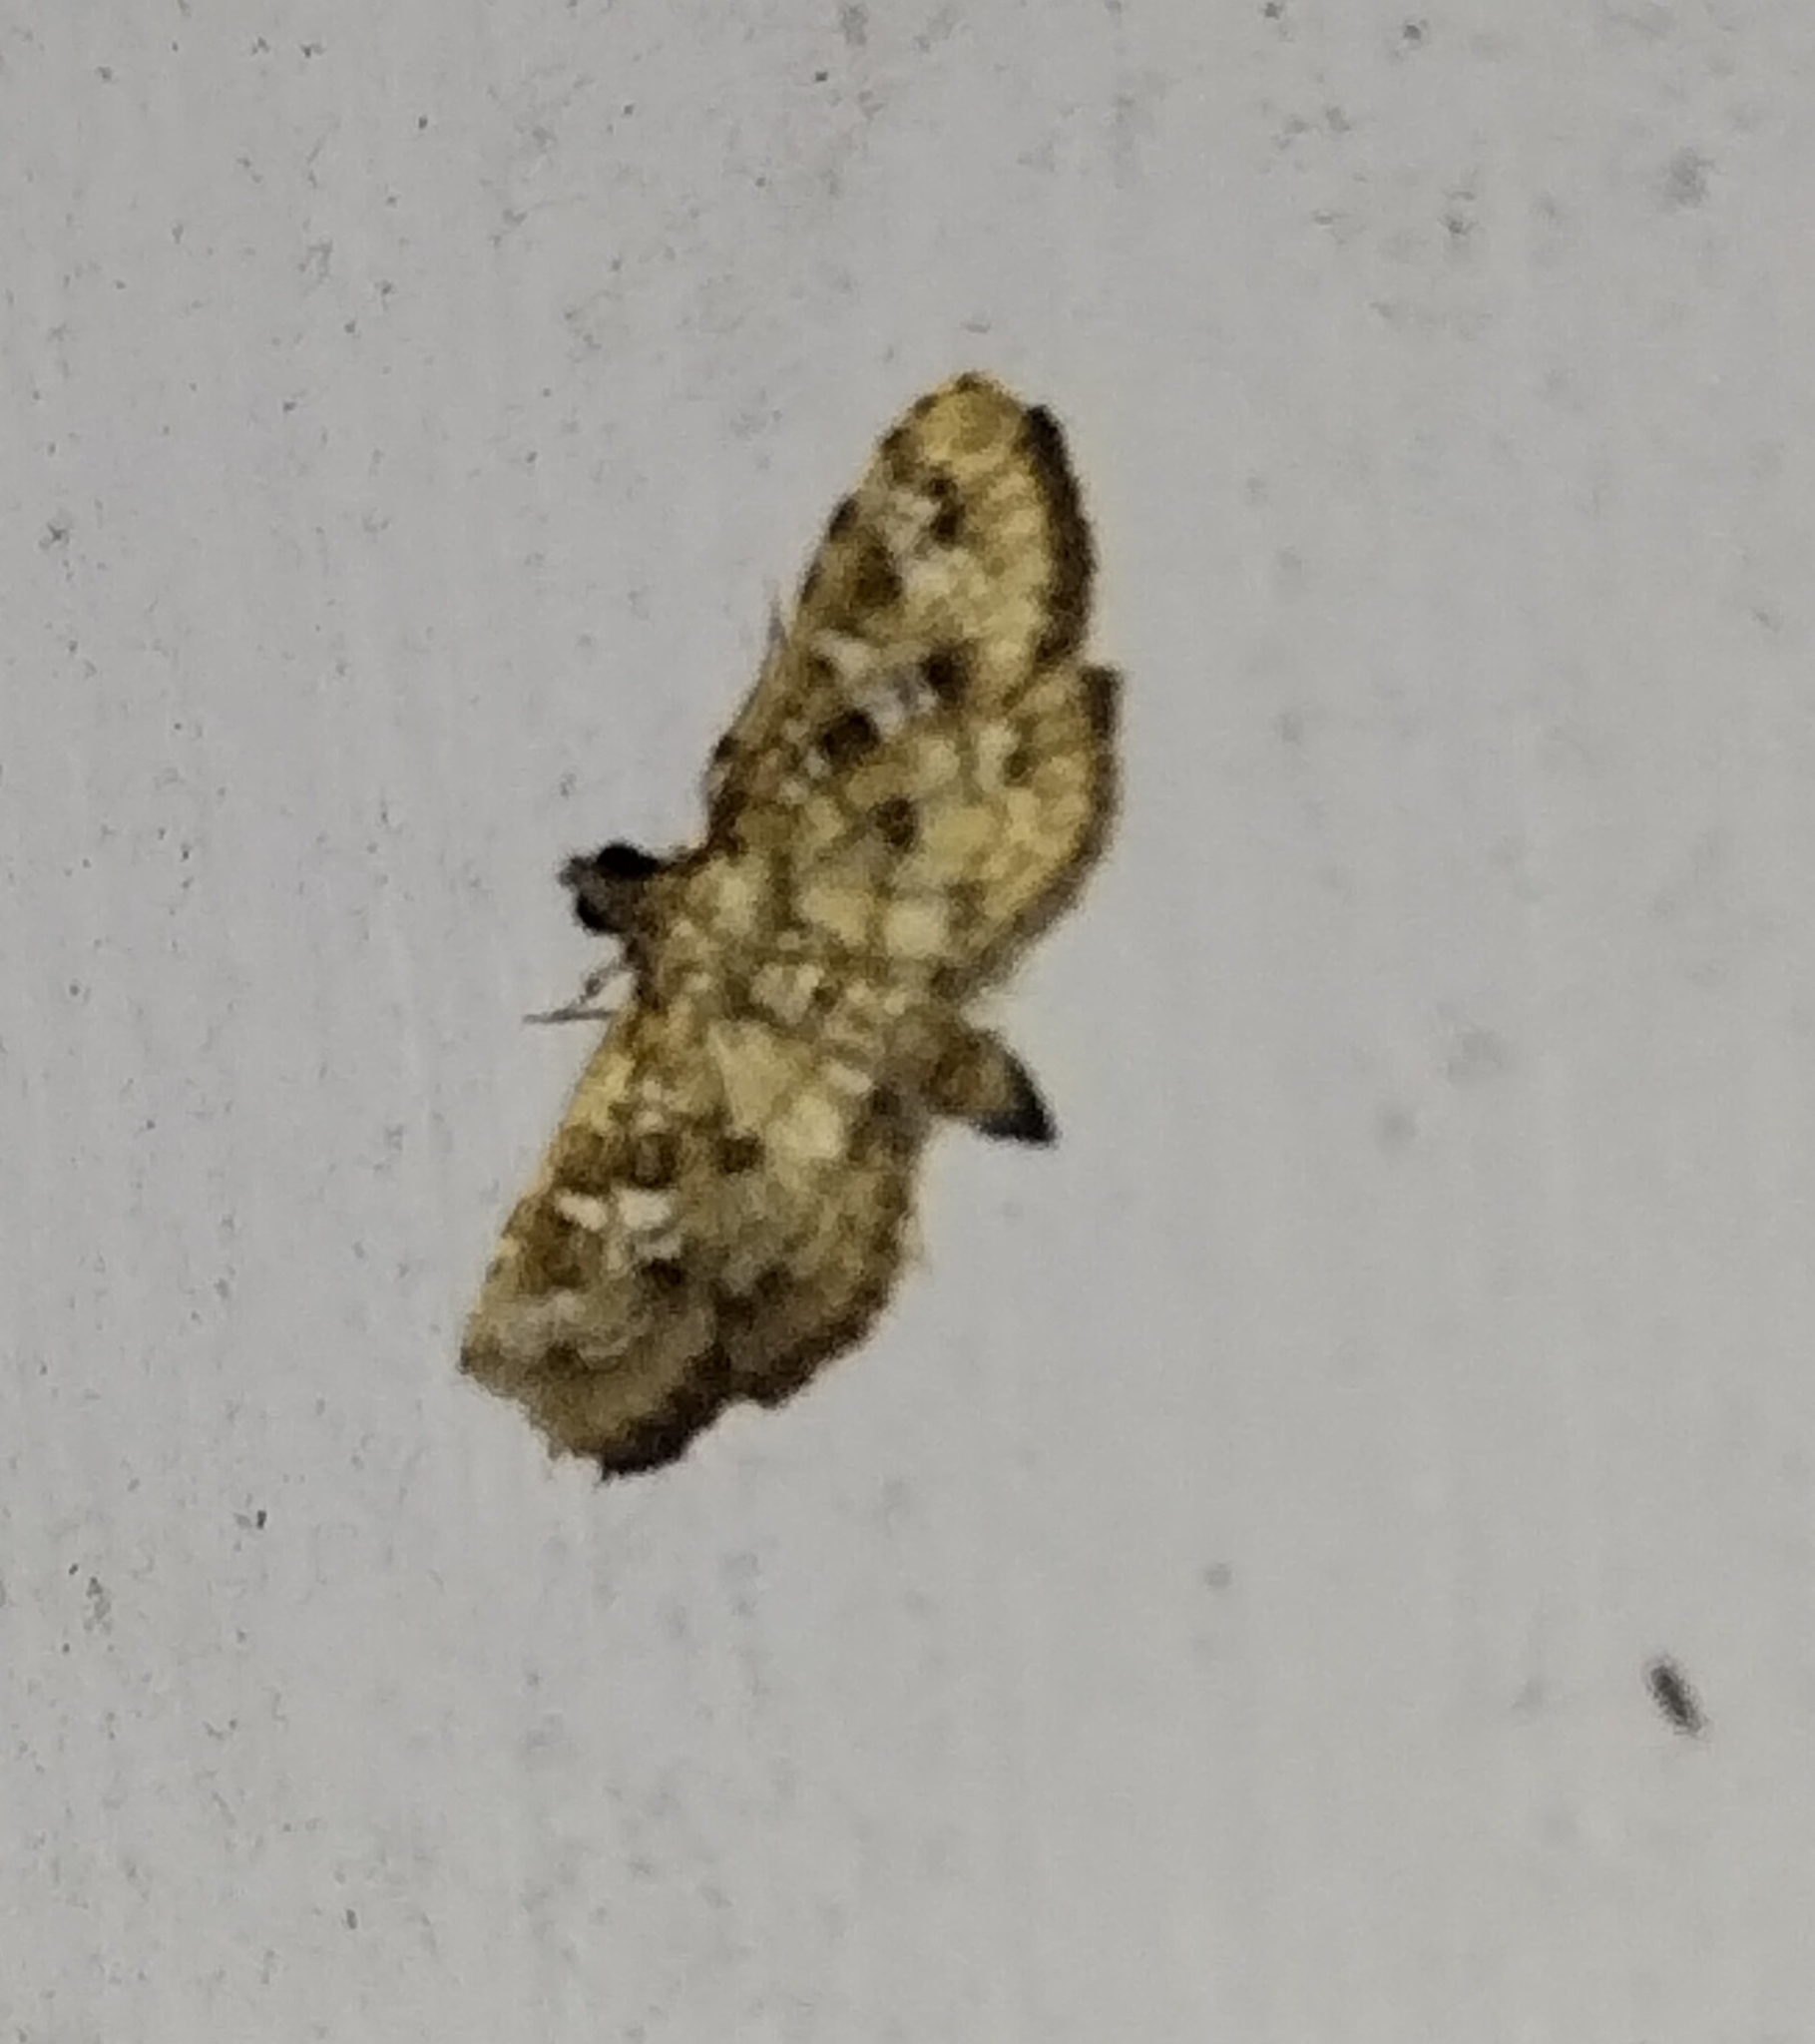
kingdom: Animalia
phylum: Arthropoda
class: Insecta
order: Lepidoptera
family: Crambidae
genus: Samea
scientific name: Samea multiplicalis
